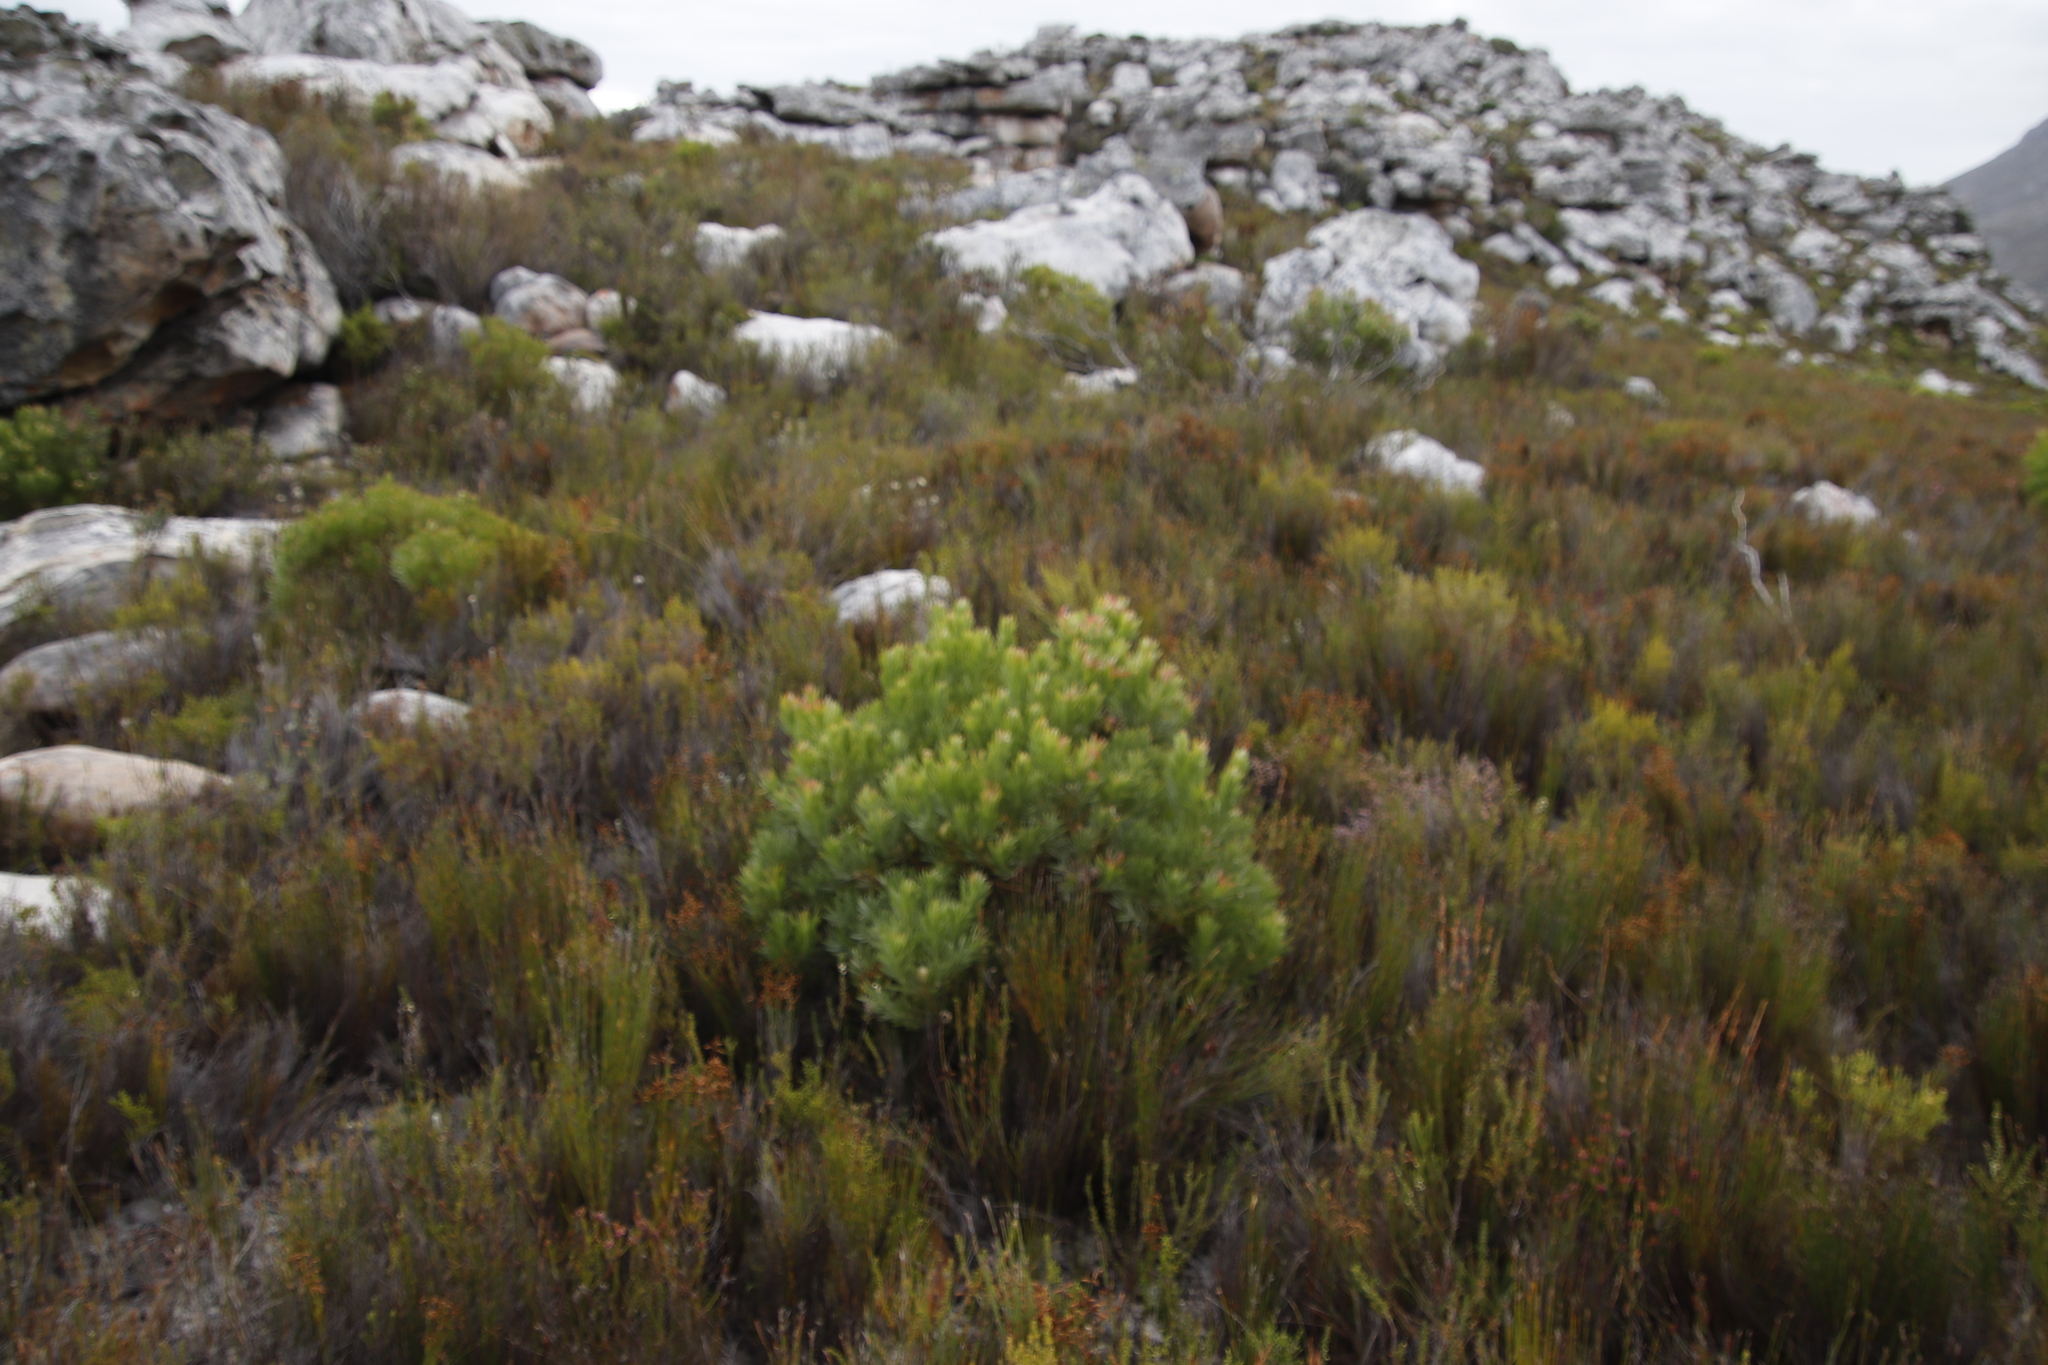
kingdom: Plantae
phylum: Tracheophyta
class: Magnoliopsida
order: Proteales
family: Proteaceae
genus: Leucadendron
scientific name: Leucadendron xanthoconus
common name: Sickle-leaf conebush
